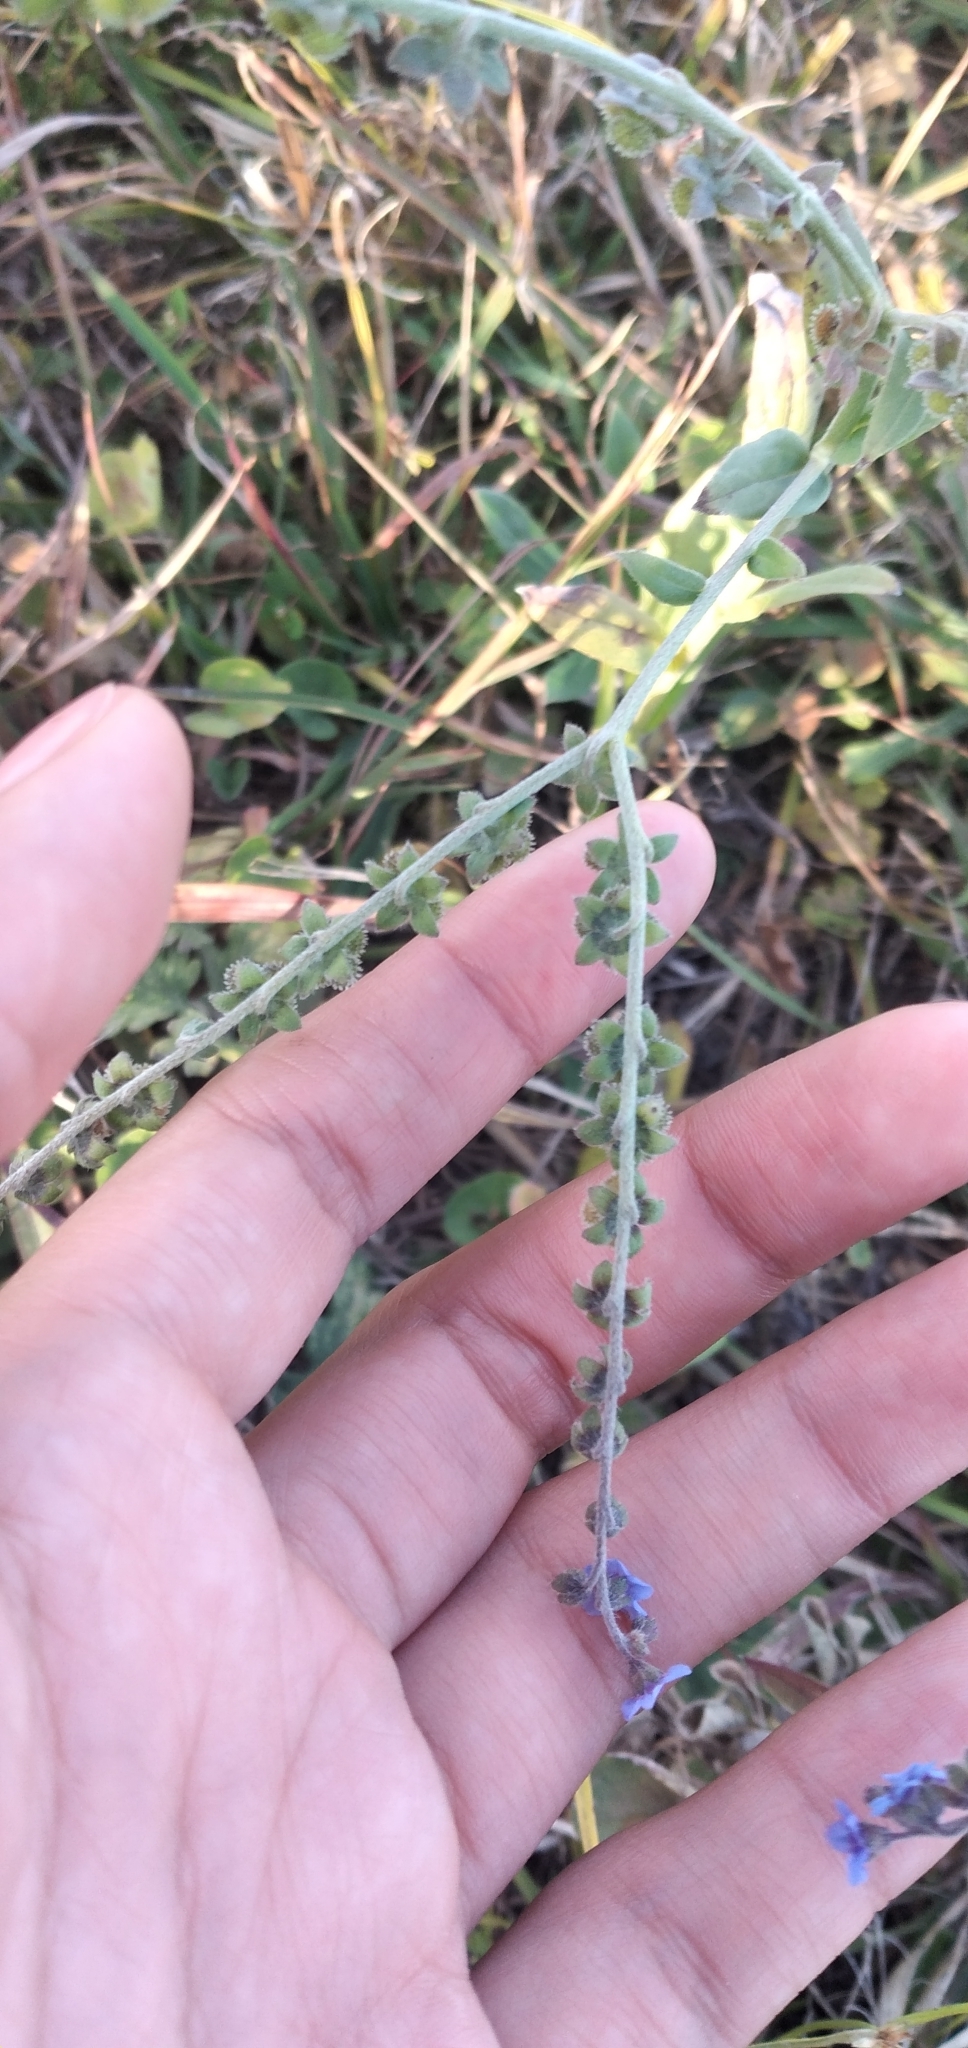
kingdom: Plantae
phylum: Tracheophyta
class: Magnoliopsida
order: Boraginales
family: Boraginaceae
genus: Cynoglossum
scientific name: Cynoglossum amabile
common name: Chinese hound's tongue
